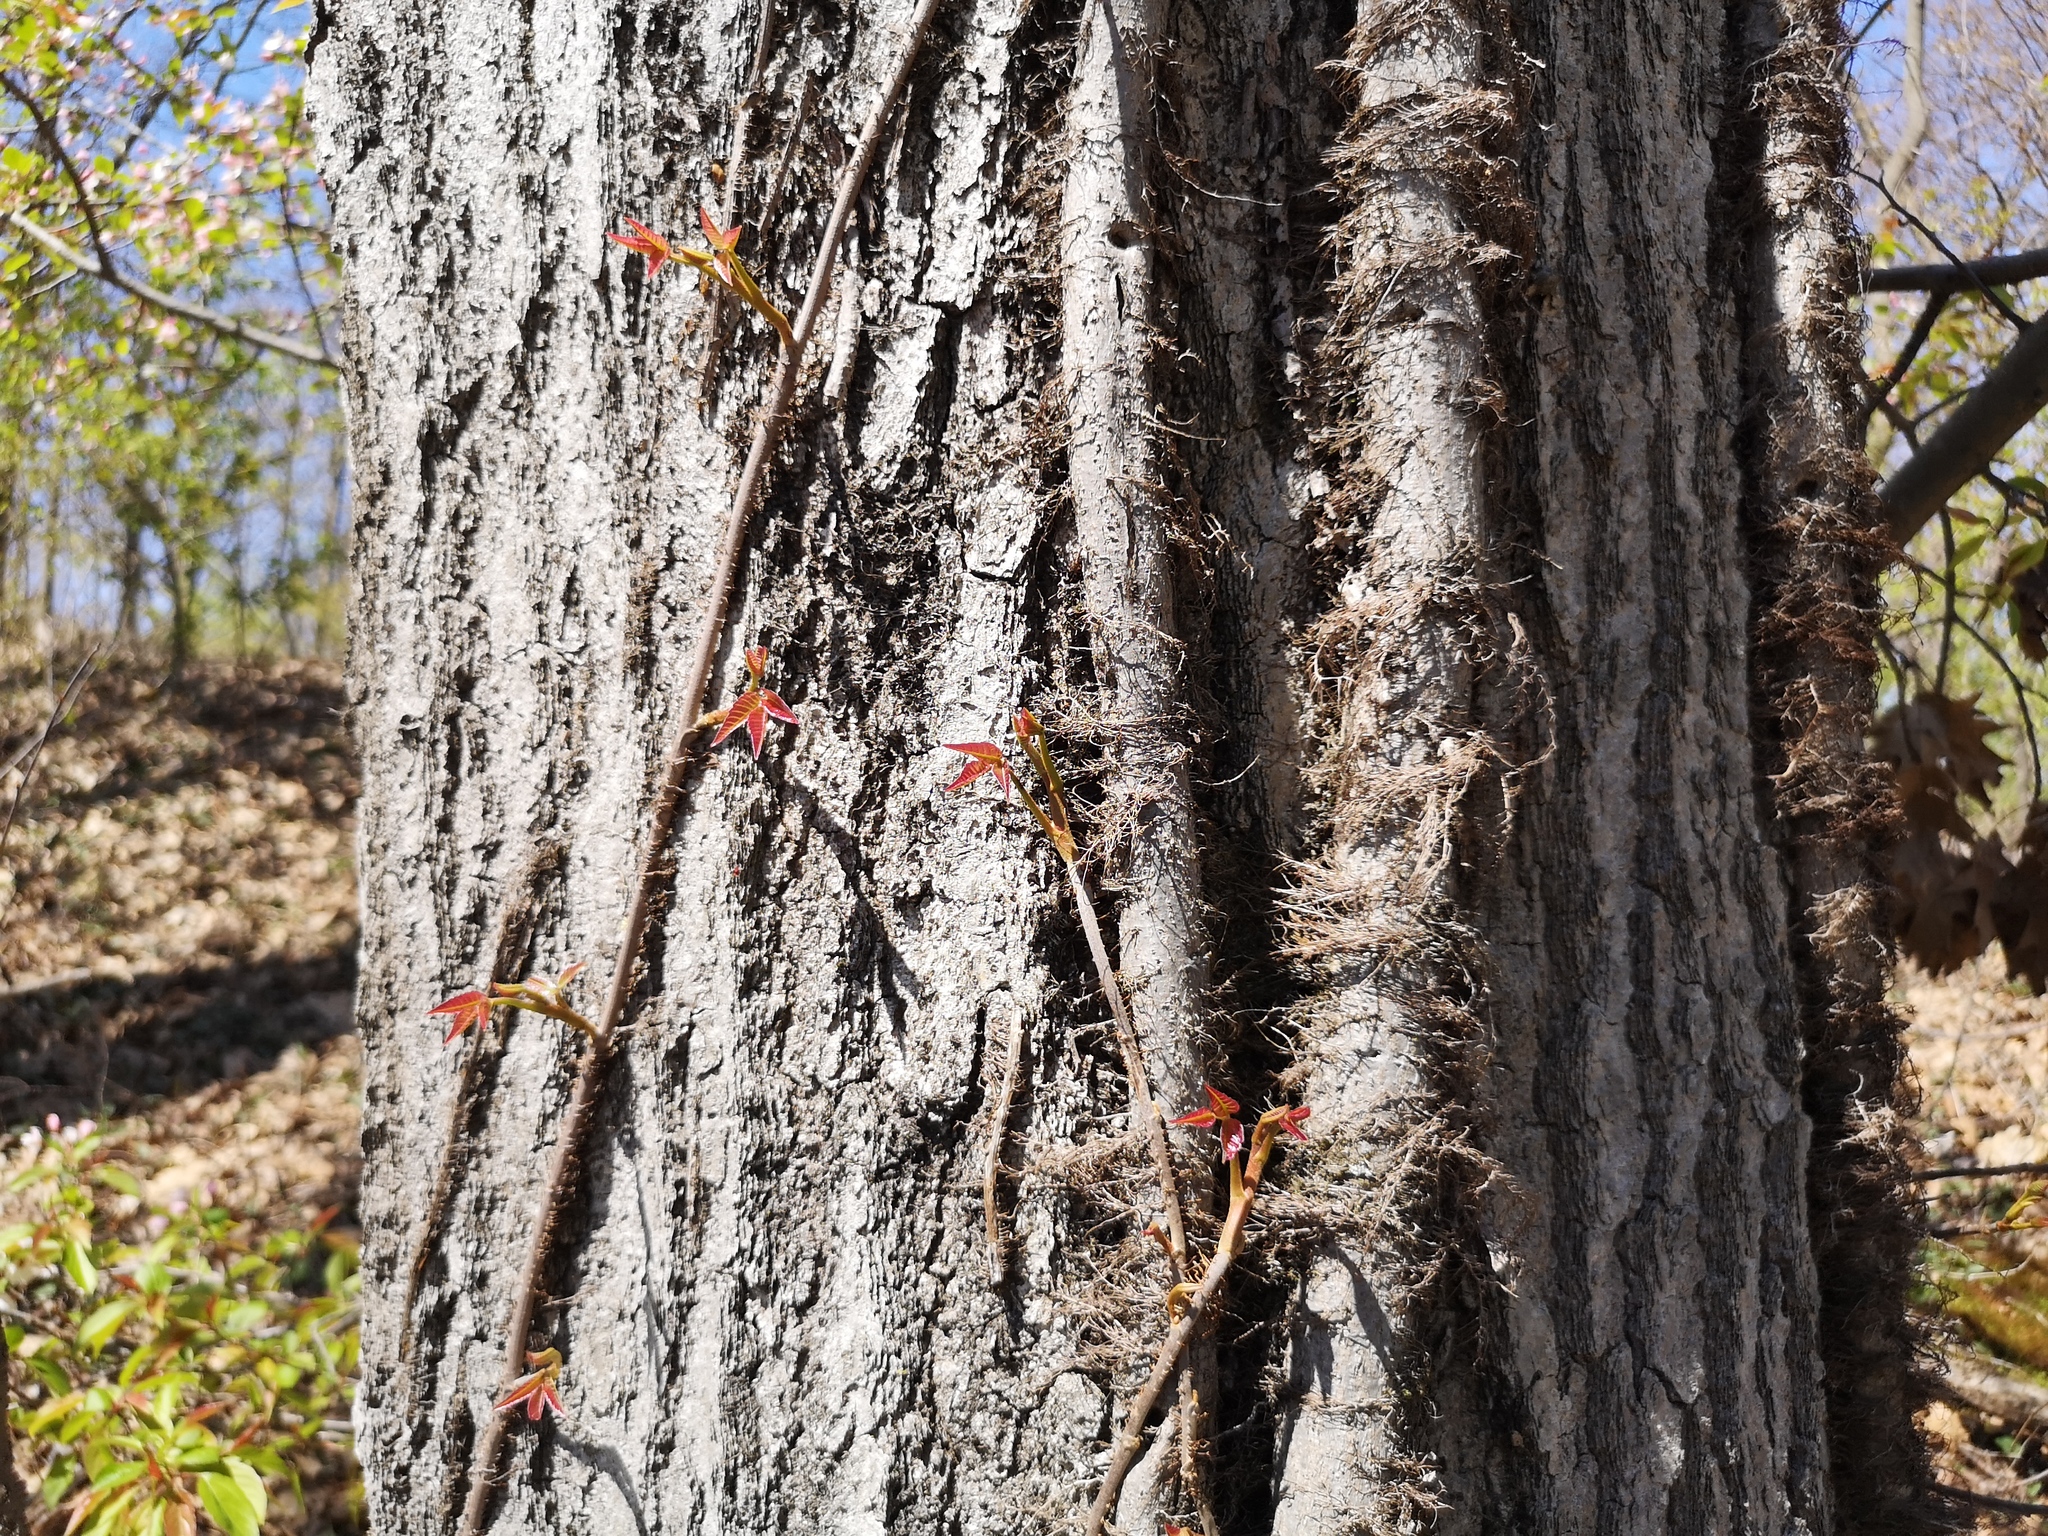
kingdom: Plantae
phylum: Tracheophyta
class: Magnoliopsida
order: Sapindales
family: Anacardiaceae
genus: Toxicodendron
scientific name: Toxicodendron radicans
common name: Poison ivy
